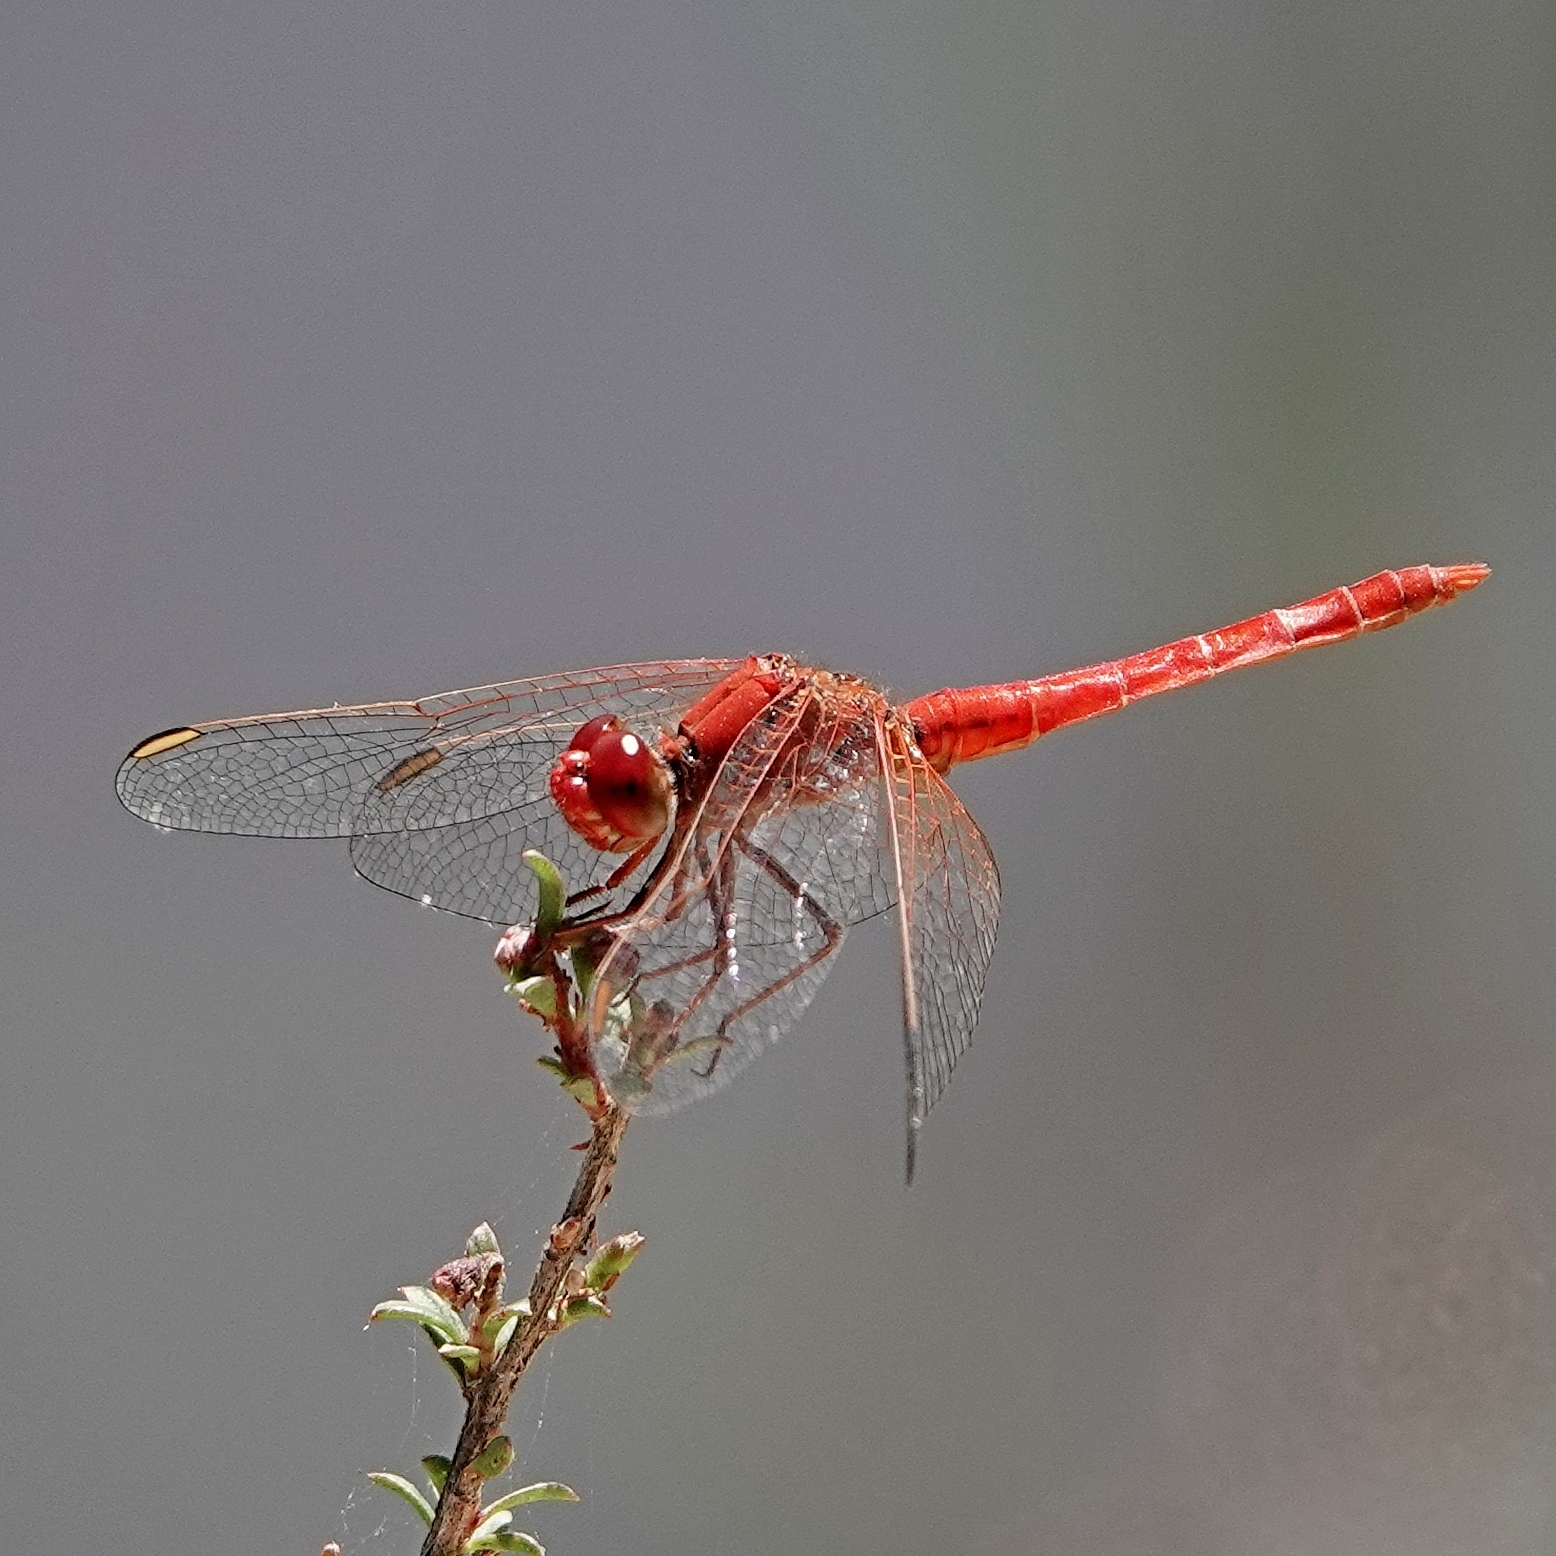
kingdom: Animalia
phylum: Arthropoda
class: Insecta
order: Odonata
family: Libellulidae
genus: Diplacodes
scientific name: Diplacodes haematodes
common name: Scarlet percher
